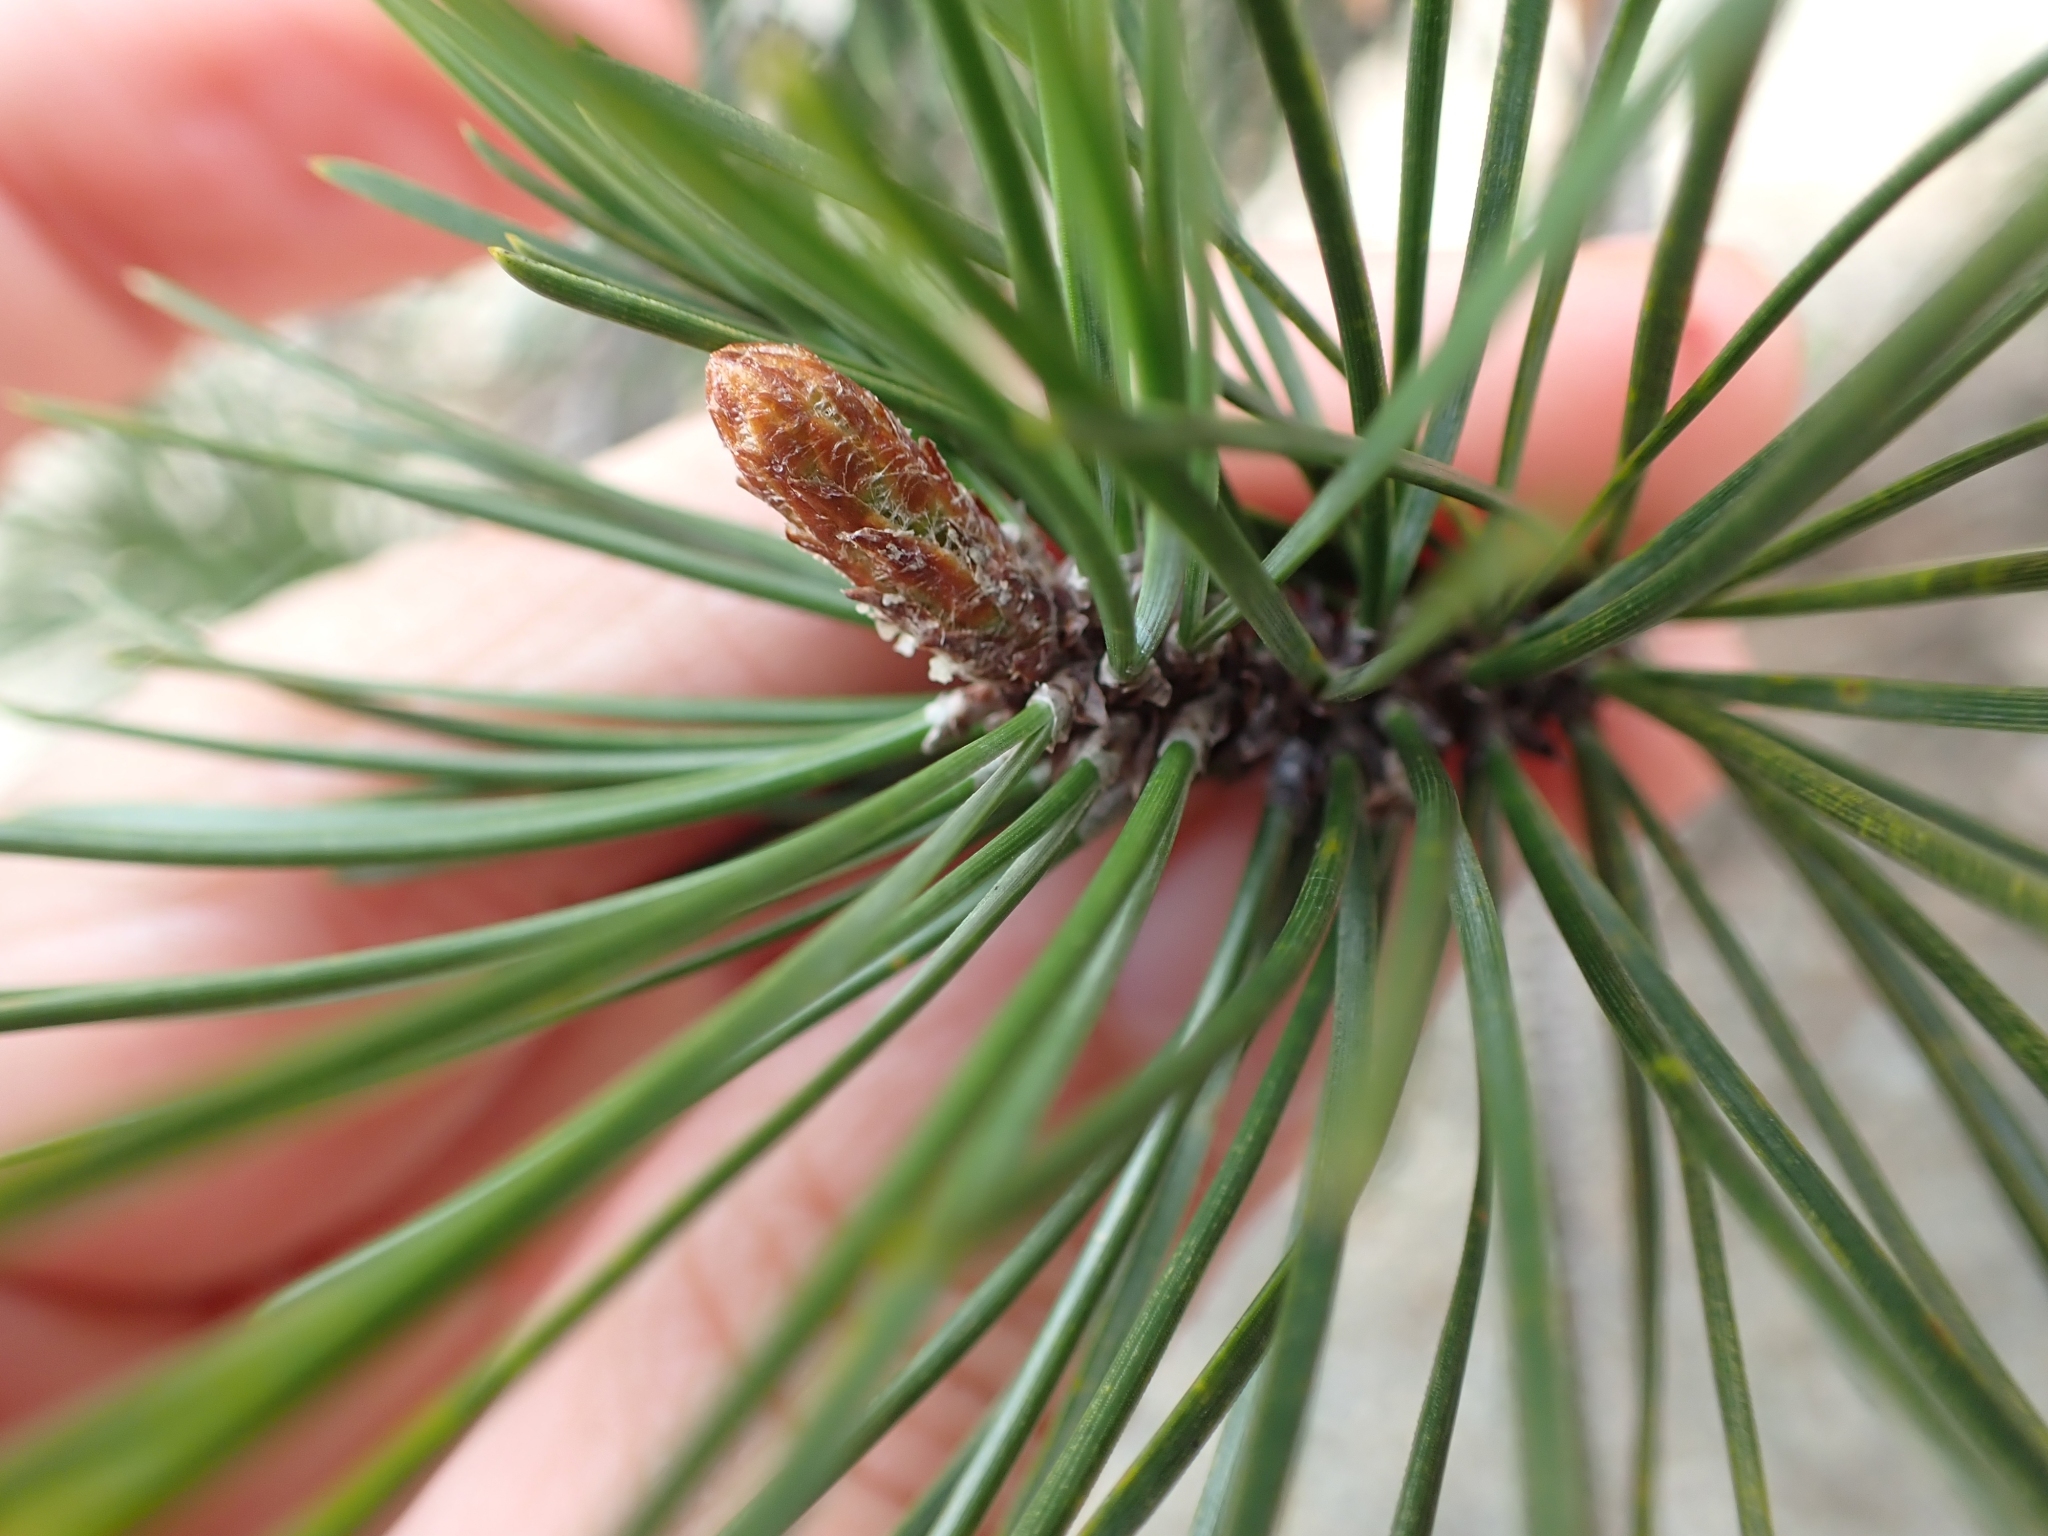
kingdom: Plantae
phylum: Tracheophyta
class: Pinopsida
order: Pinales
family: Pinaceae
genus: Pinus
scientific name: Pinus contorta
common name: Lodgepole pine
